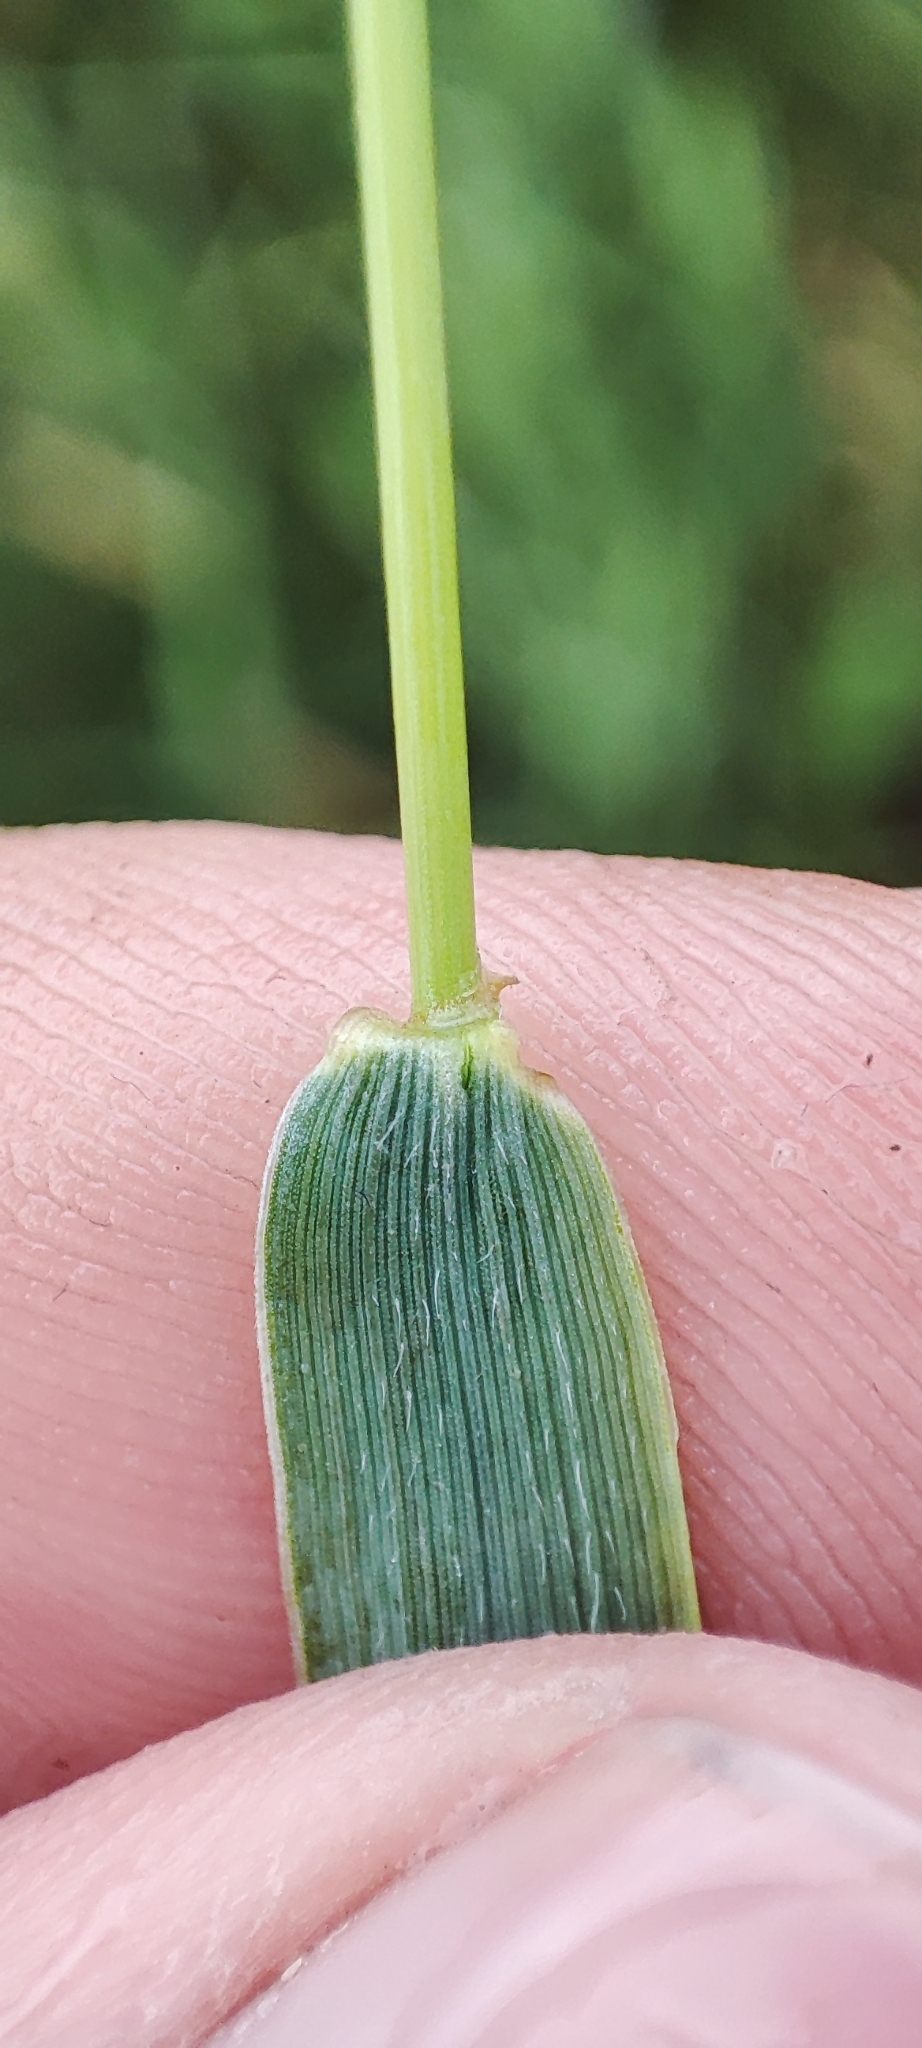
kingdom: Plantae
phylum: Tracheophyta
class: Liliopsida
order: Poales
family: Poaceae
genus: Elymus
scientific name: Elymus repens
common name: Quackgrass
